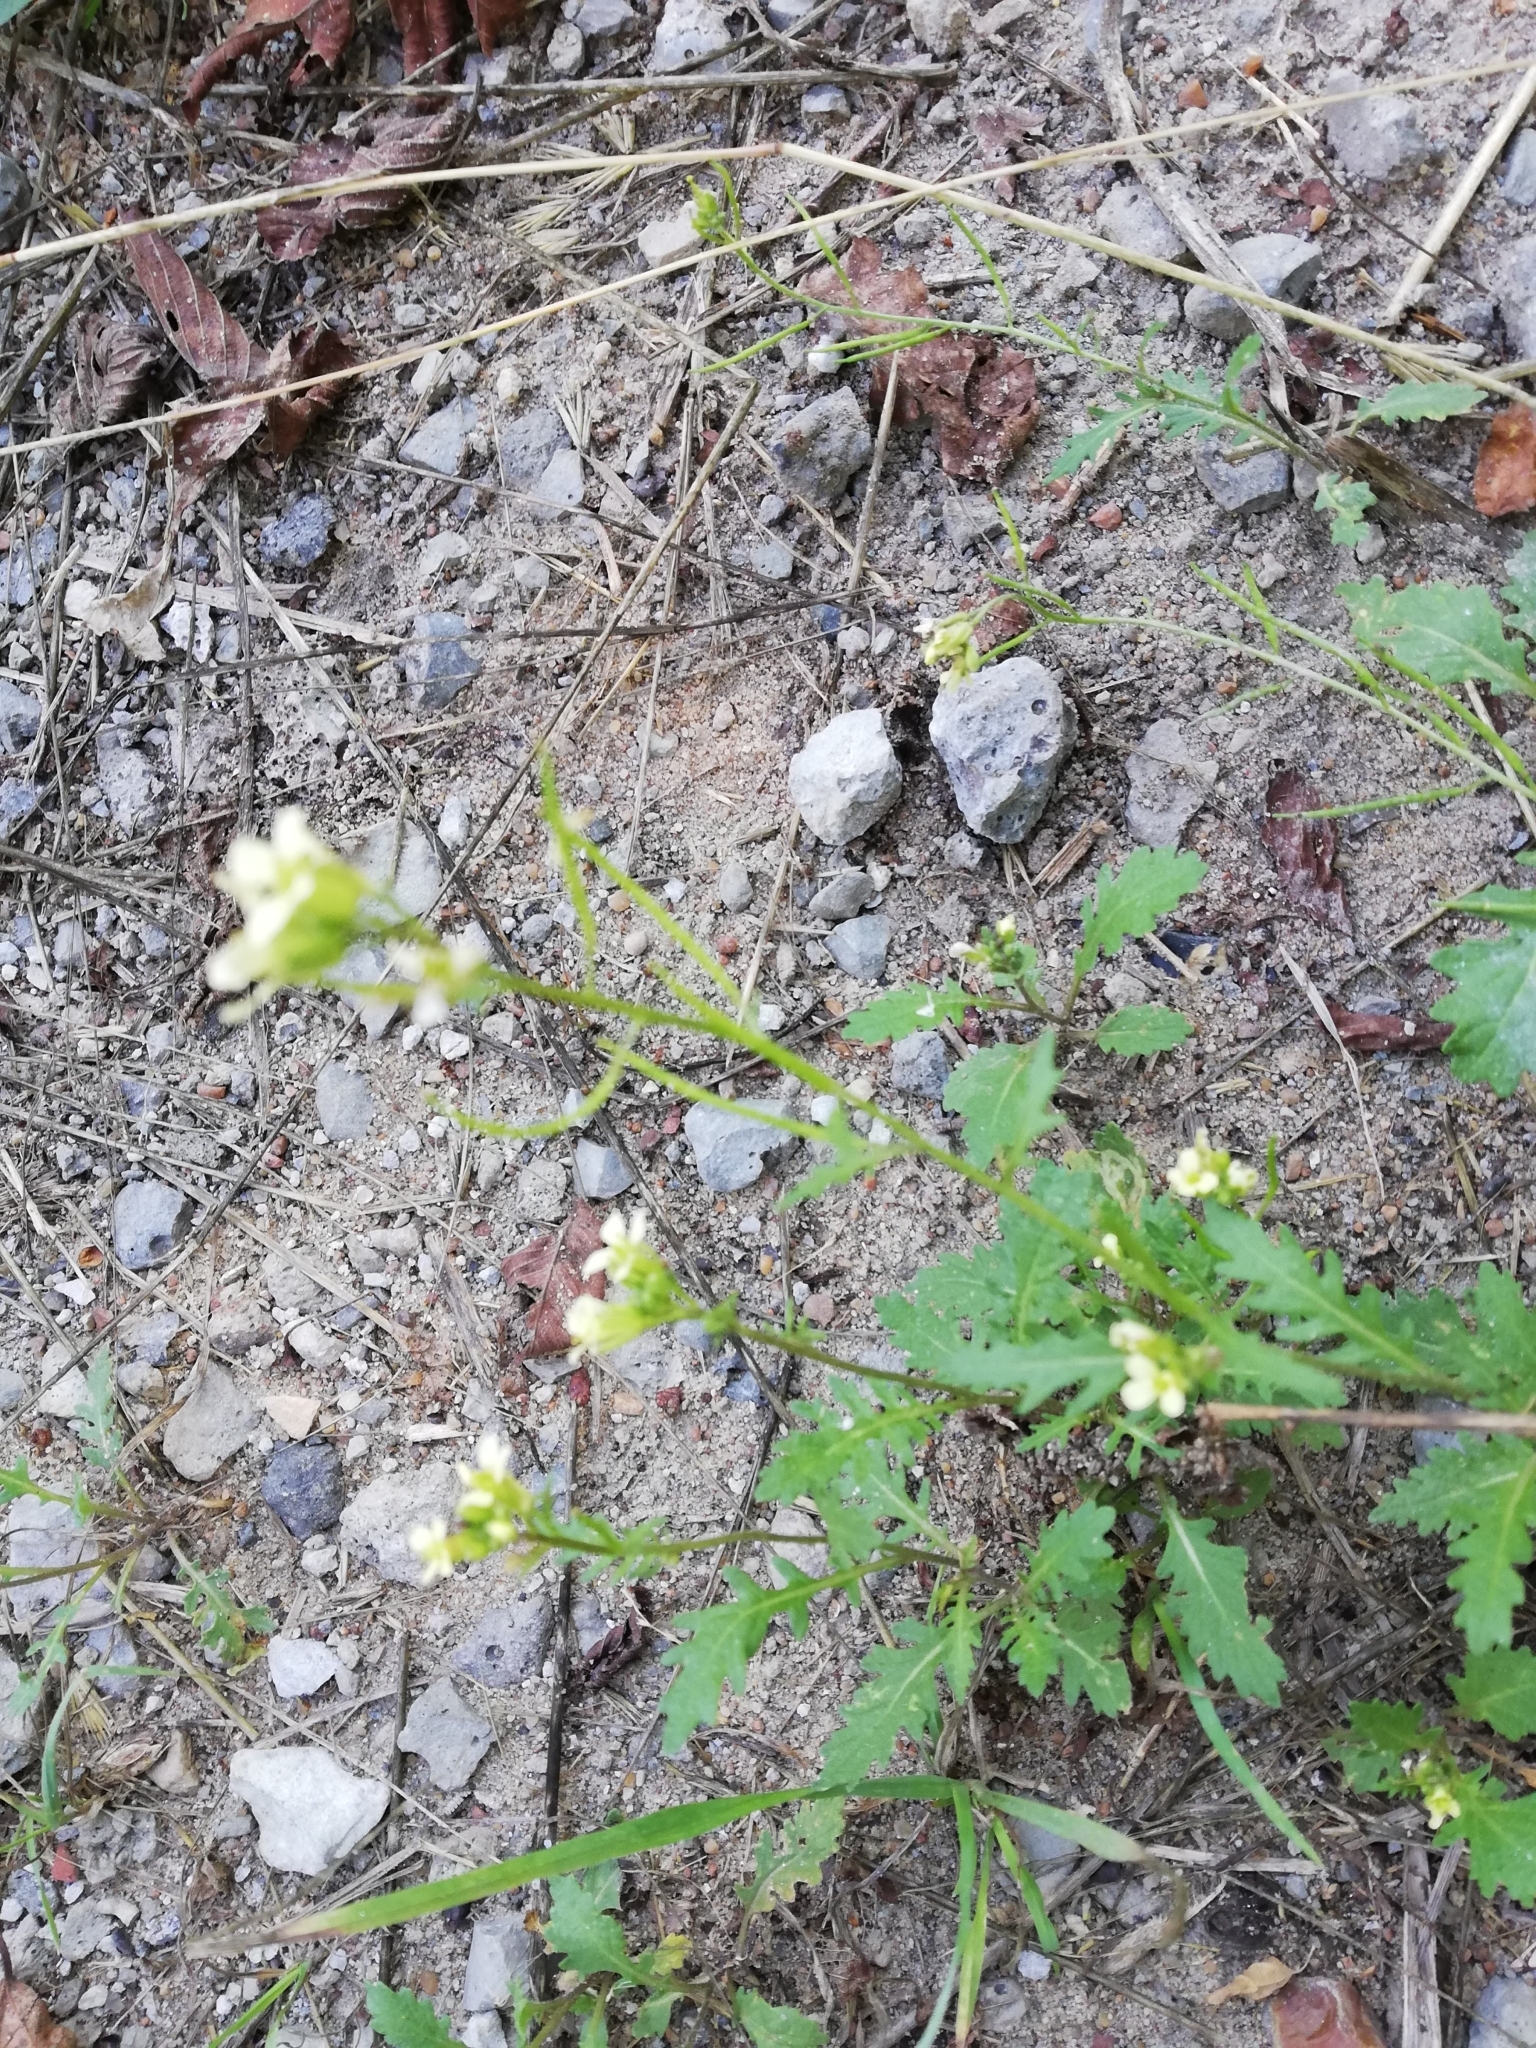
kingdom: Plantae
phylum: Tracheophyta
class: Magnoliopsida
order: Brassicales
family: Brassicaceae
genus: Erucastrum
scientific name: Erucastrum gallicum
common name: Hairy rocket
